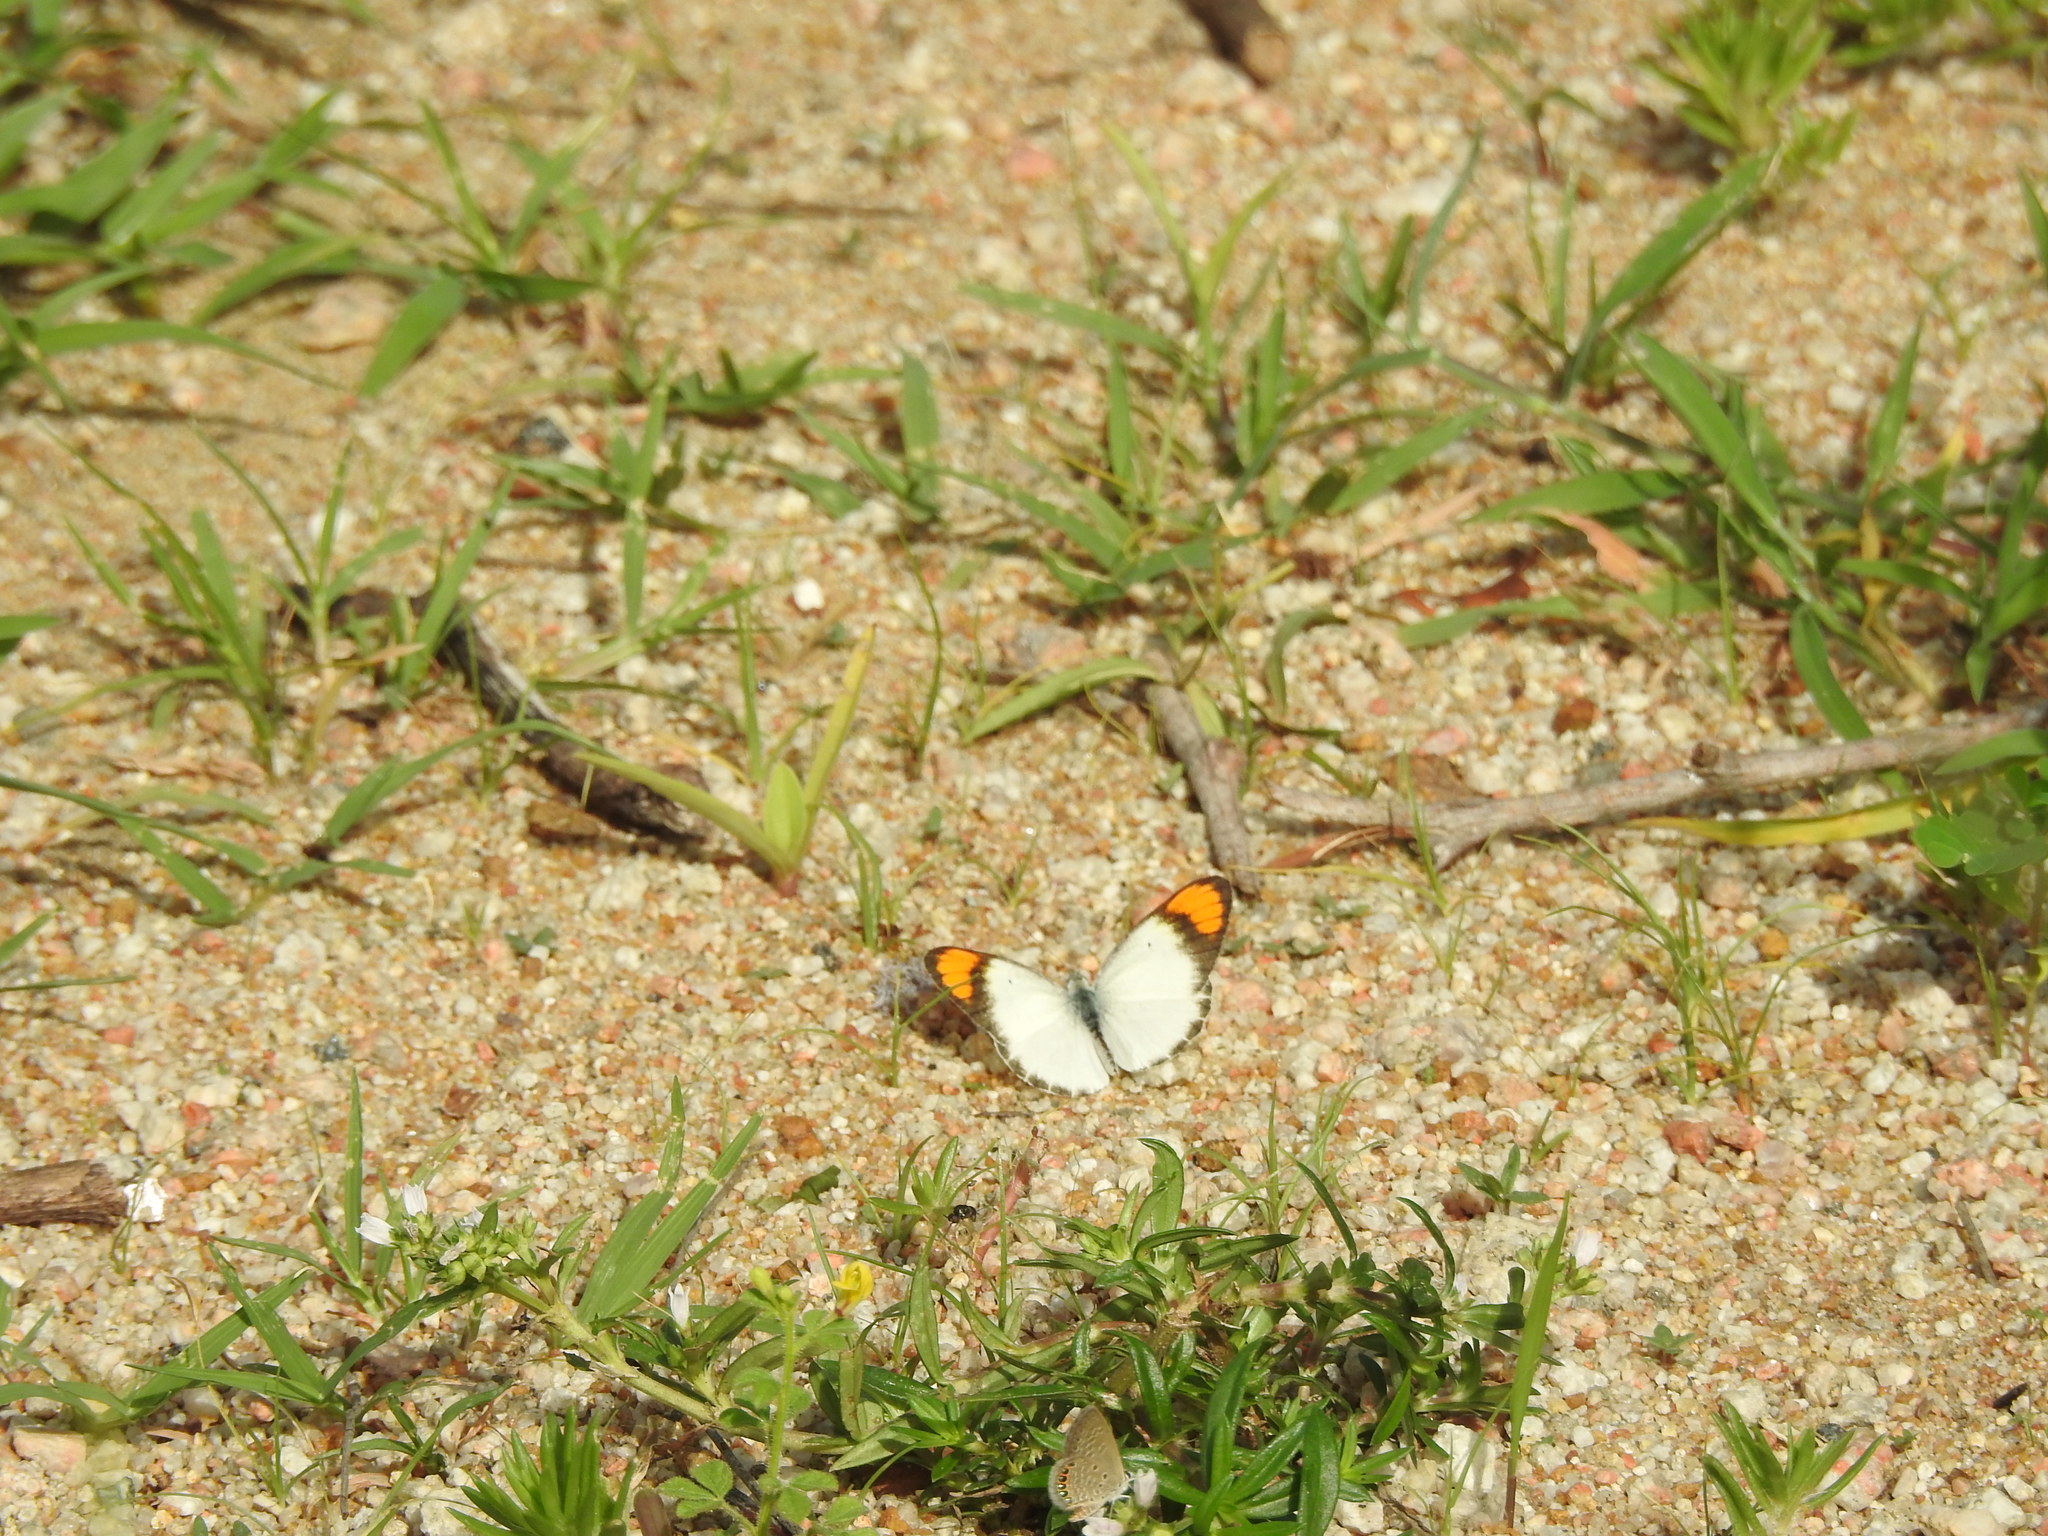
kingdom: Animalia
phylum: Arthropoda
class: Insecta
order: Lepidoptera
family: Pieridae
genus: Colotis
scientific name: Colotis etrida
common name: Little orange tip
